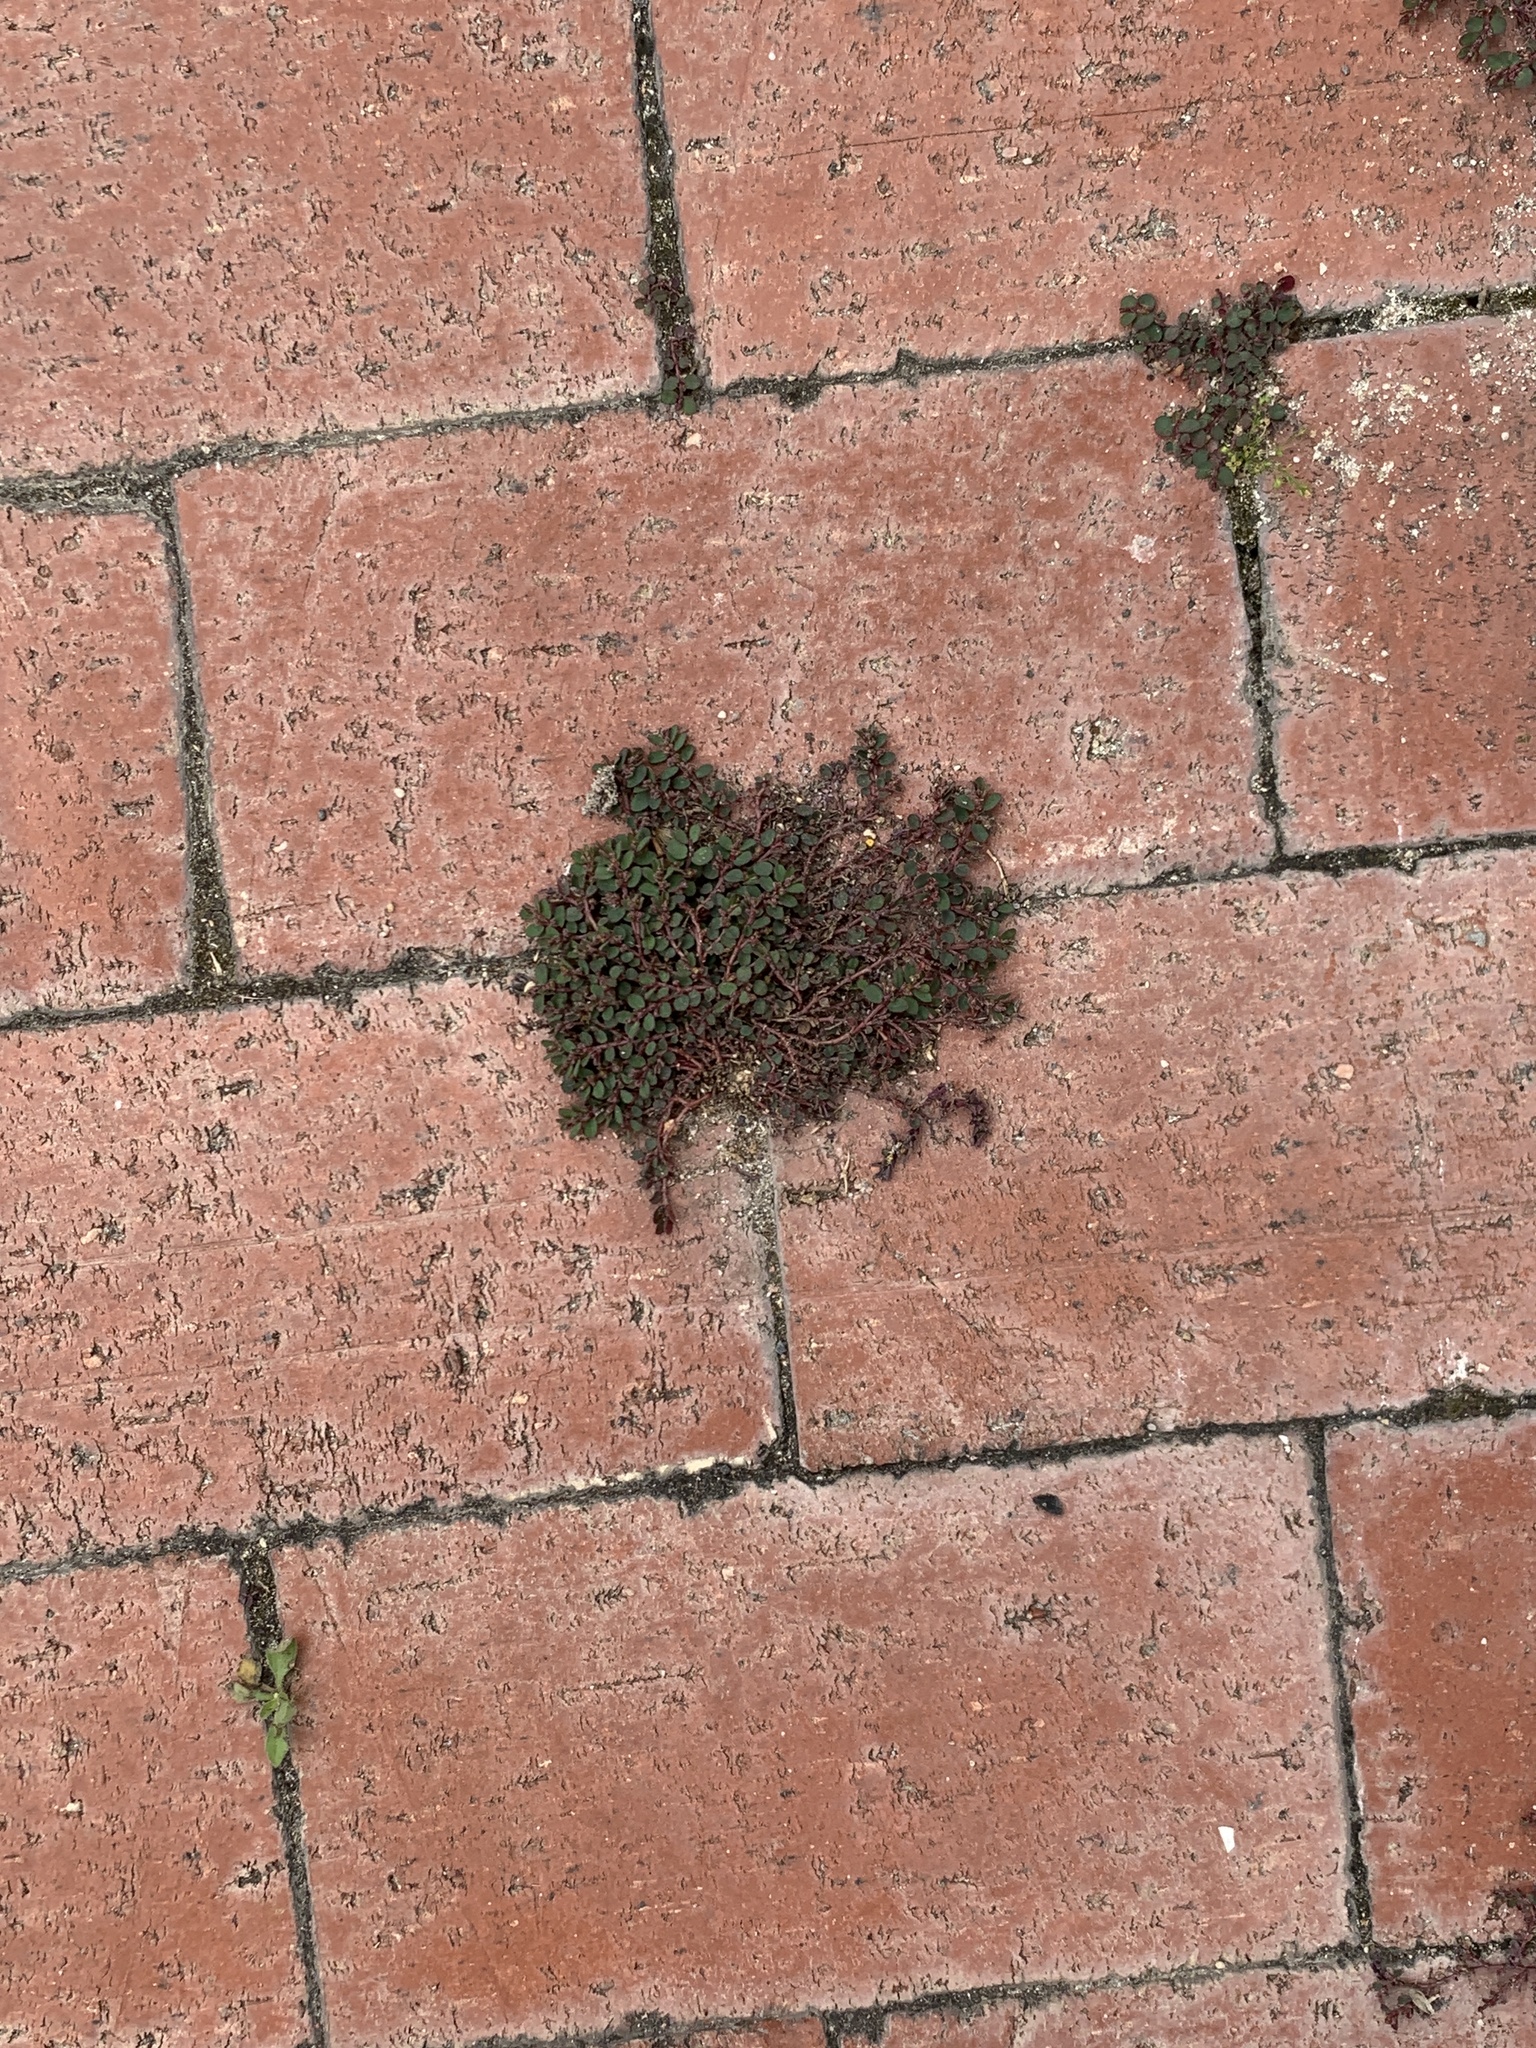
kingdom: Plantae
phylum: Tracheophyta
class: Magnoliopsida
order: Malpighiales
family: Euphorbiaceae
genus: Euphorbia
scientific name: Euphorbia prostrata
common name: Prostrate sandmat
